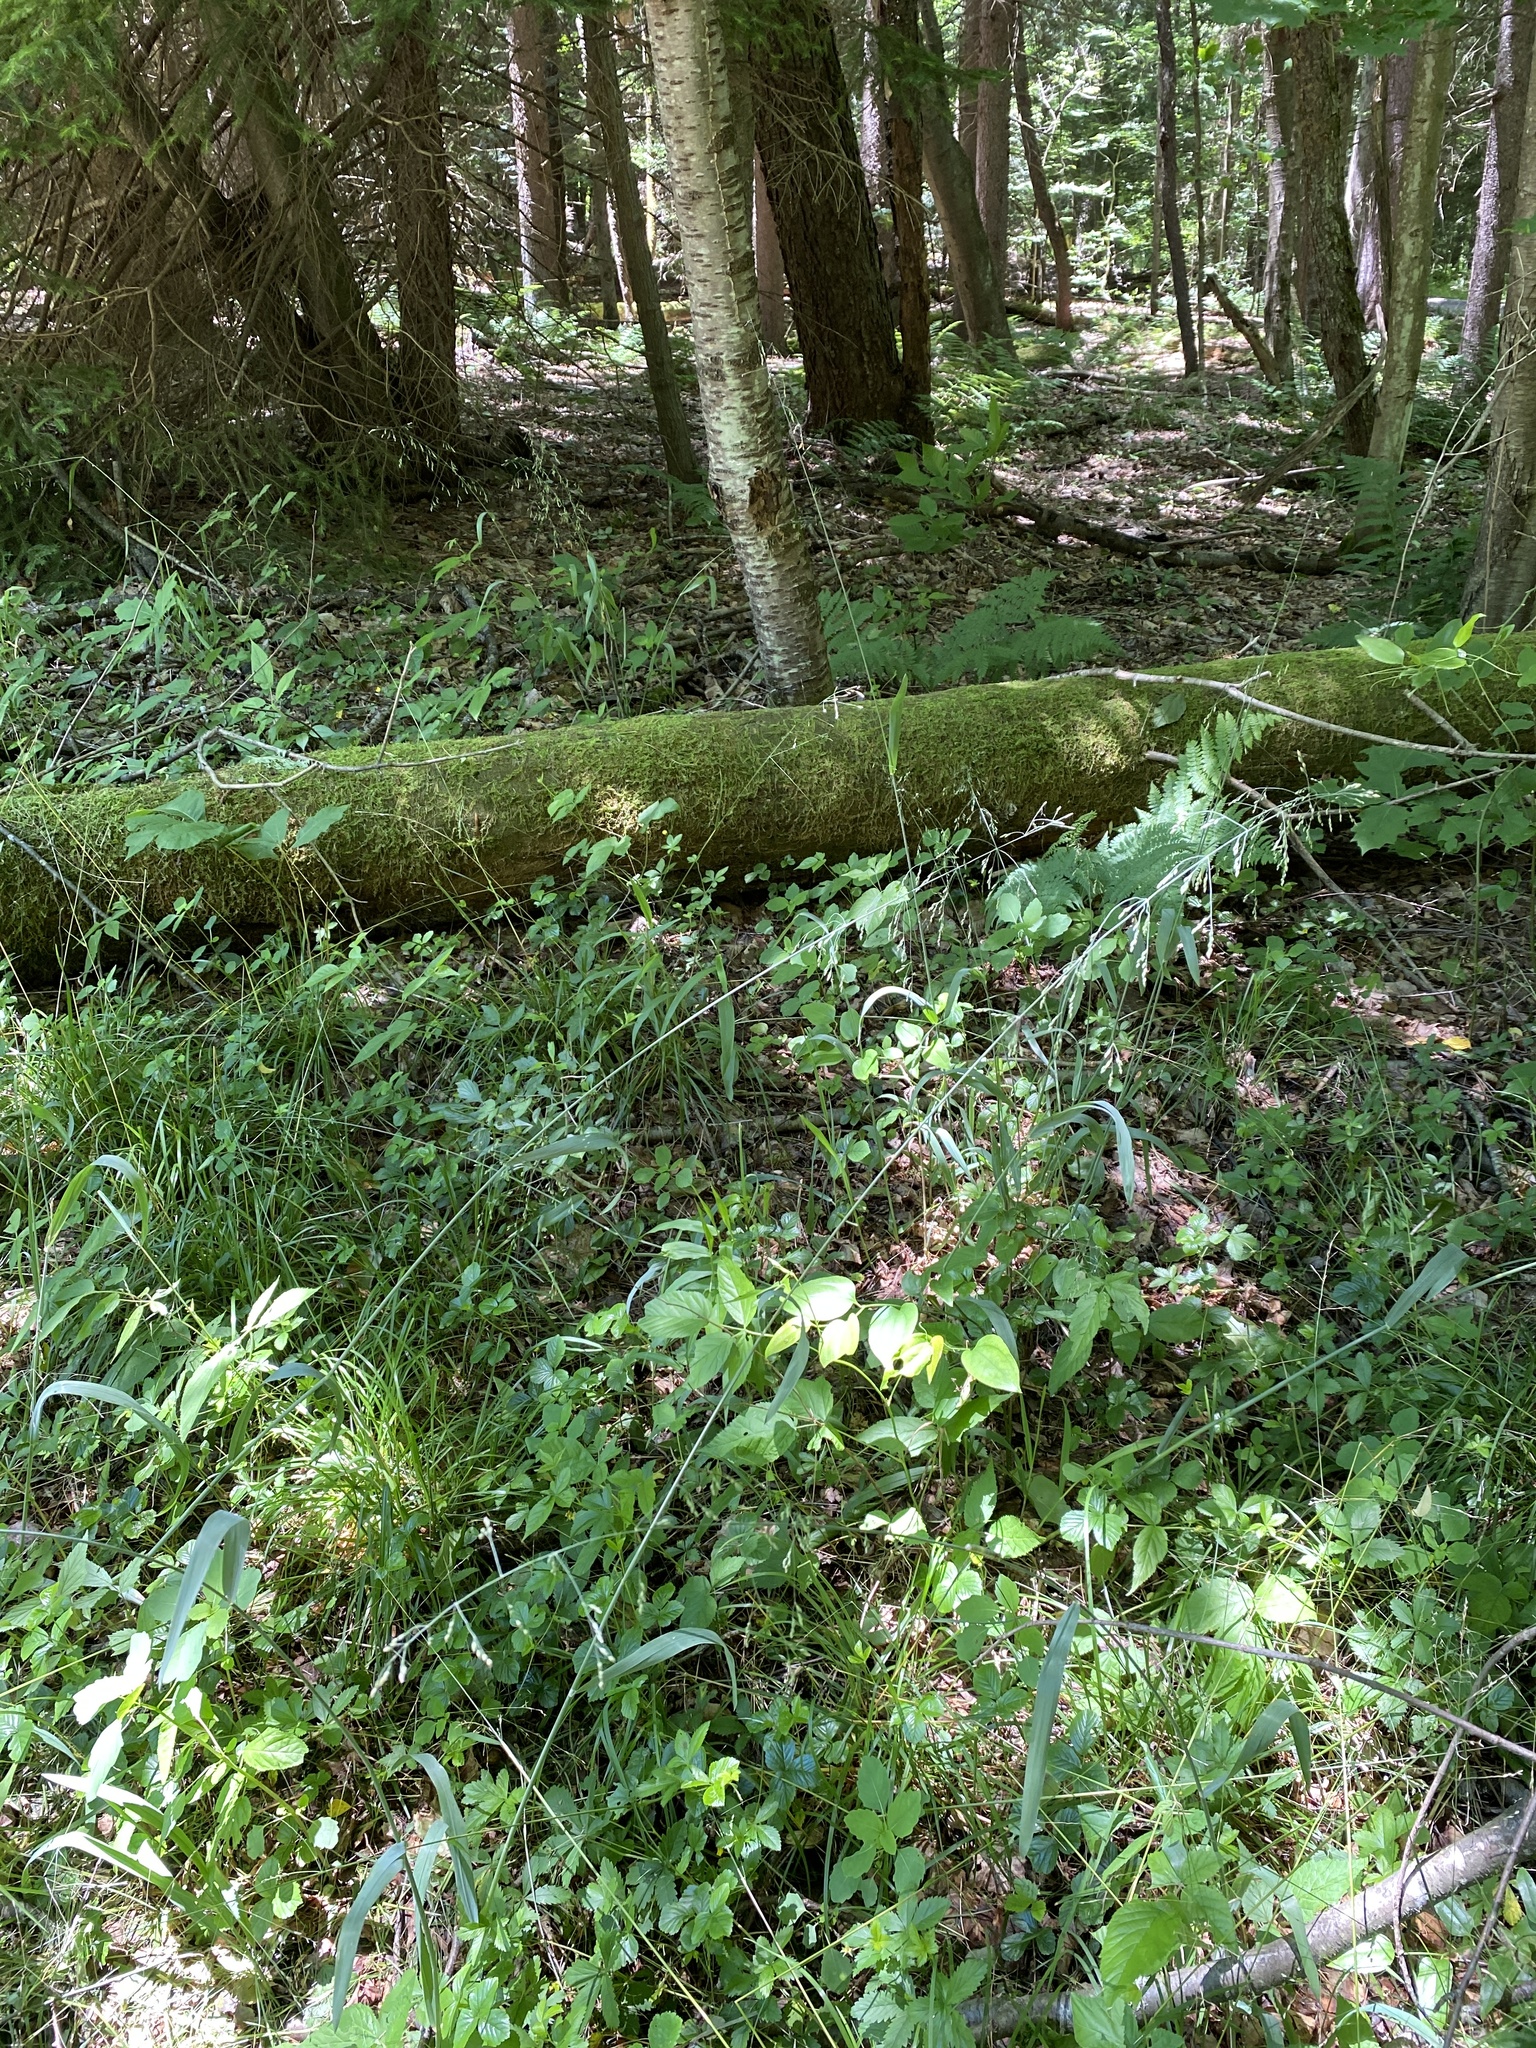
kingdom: Plantae
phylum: Tracheophyta
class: Liliopsida
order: Poales
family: Poaceae
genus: Milium
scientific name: Milium effusum
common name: Wood millet
